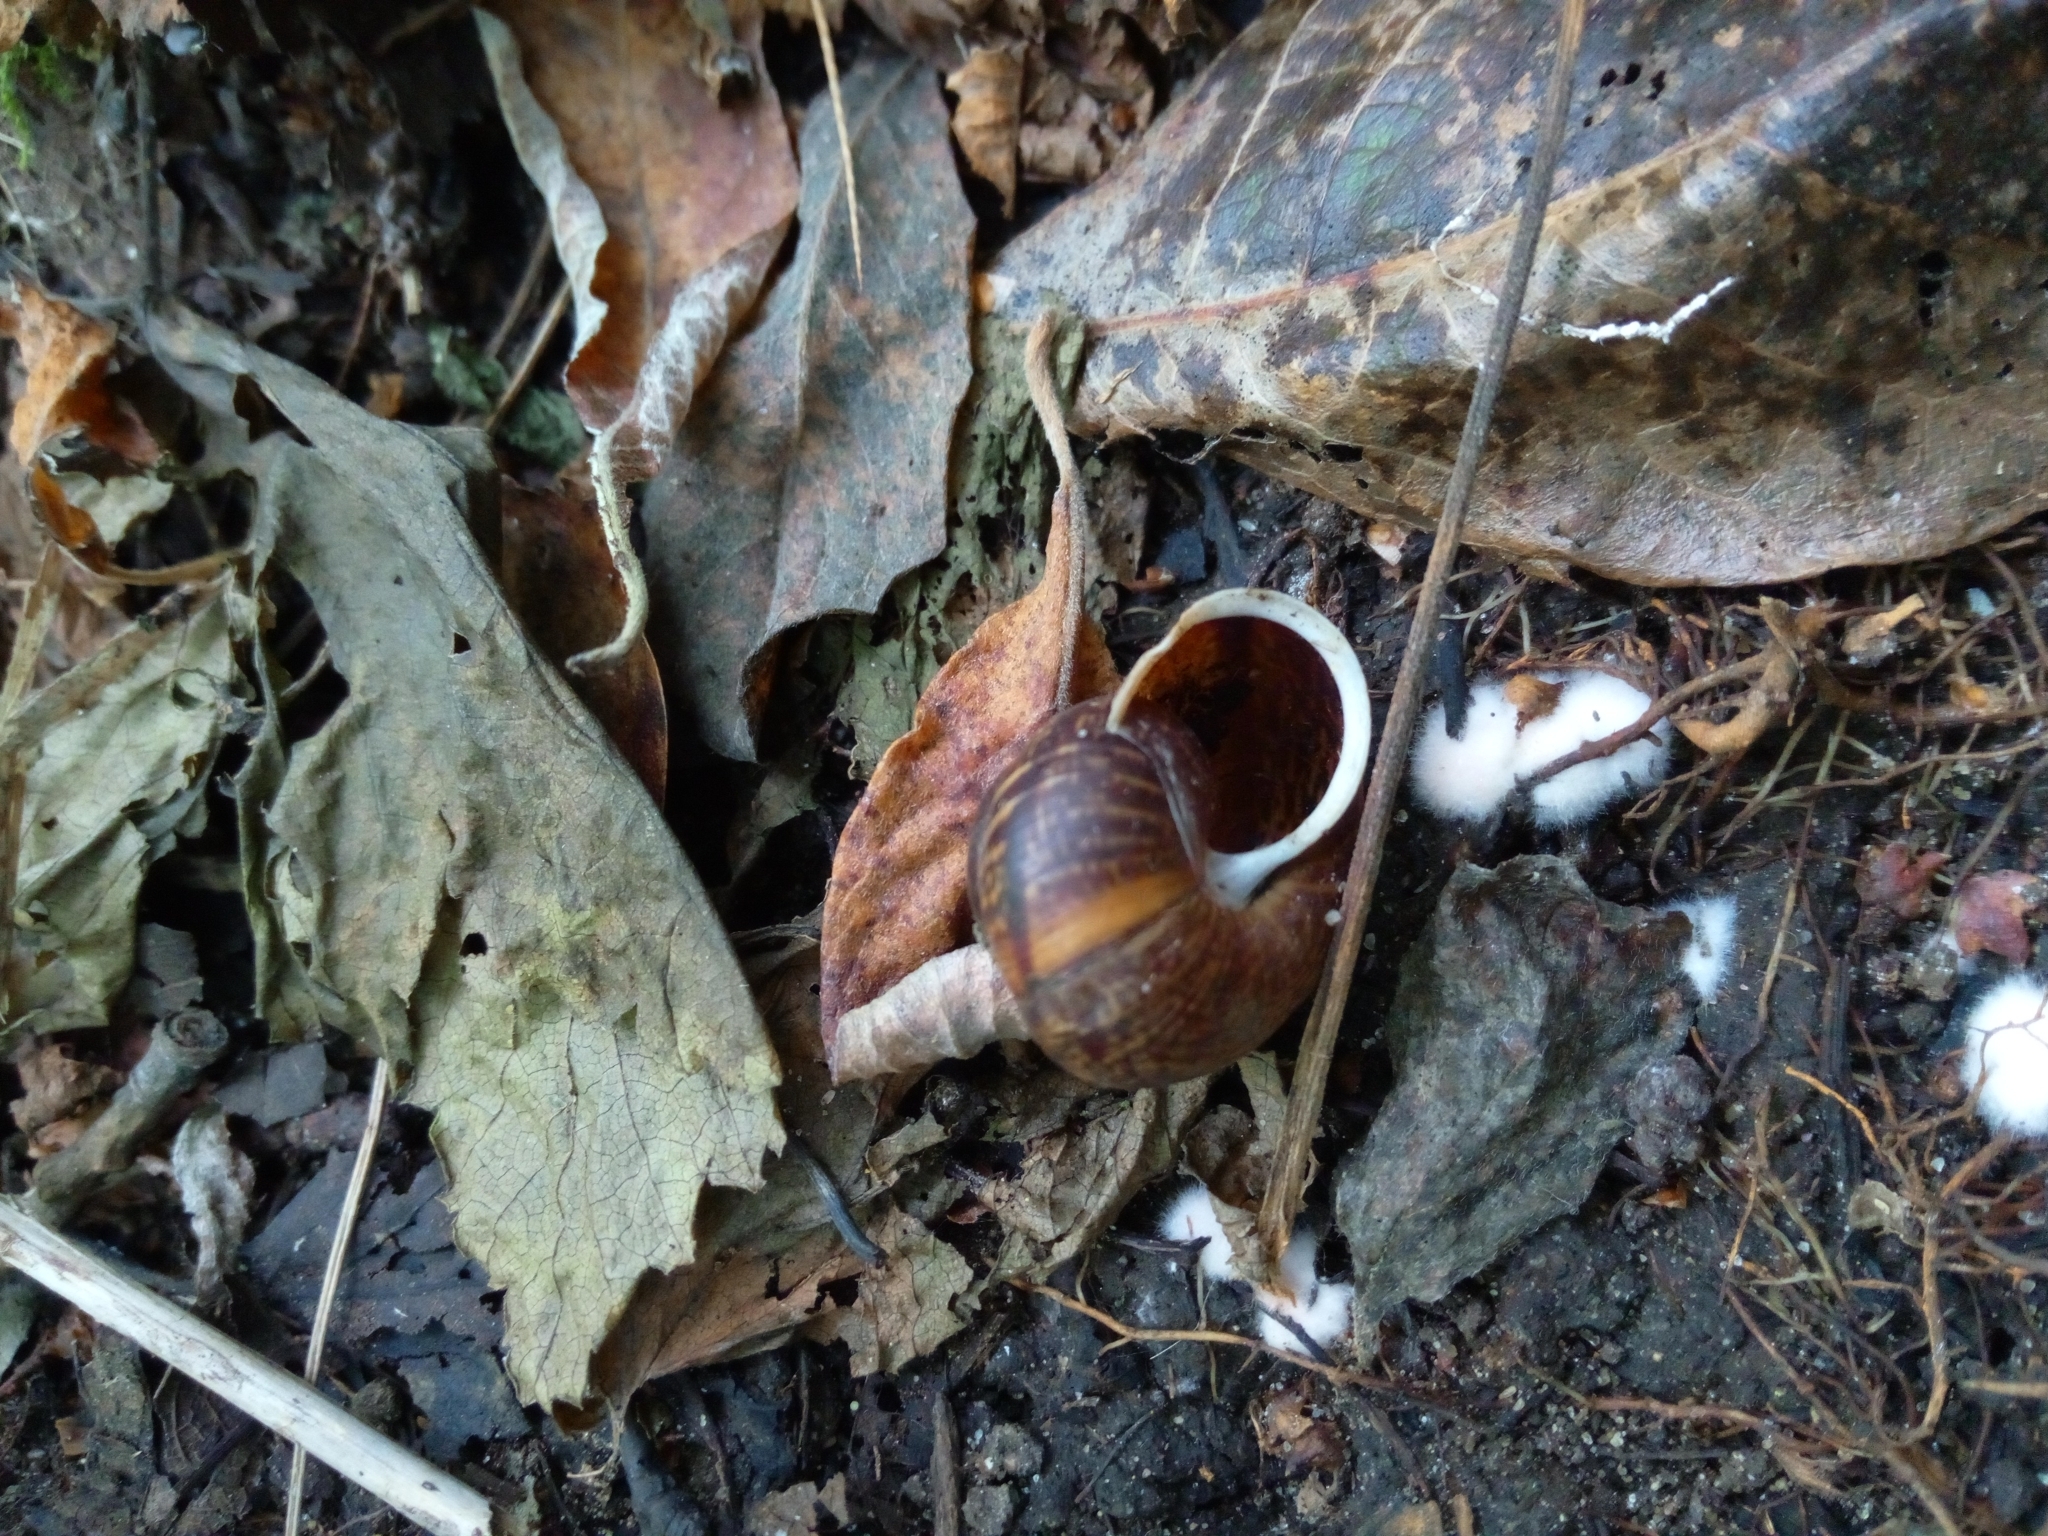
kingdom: Animalia
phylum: Mollusca
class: Gastropoda
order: Stylommatophora
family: Helicidae
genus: Arianta
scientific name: Arianta arbustorum
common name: Copse snail
